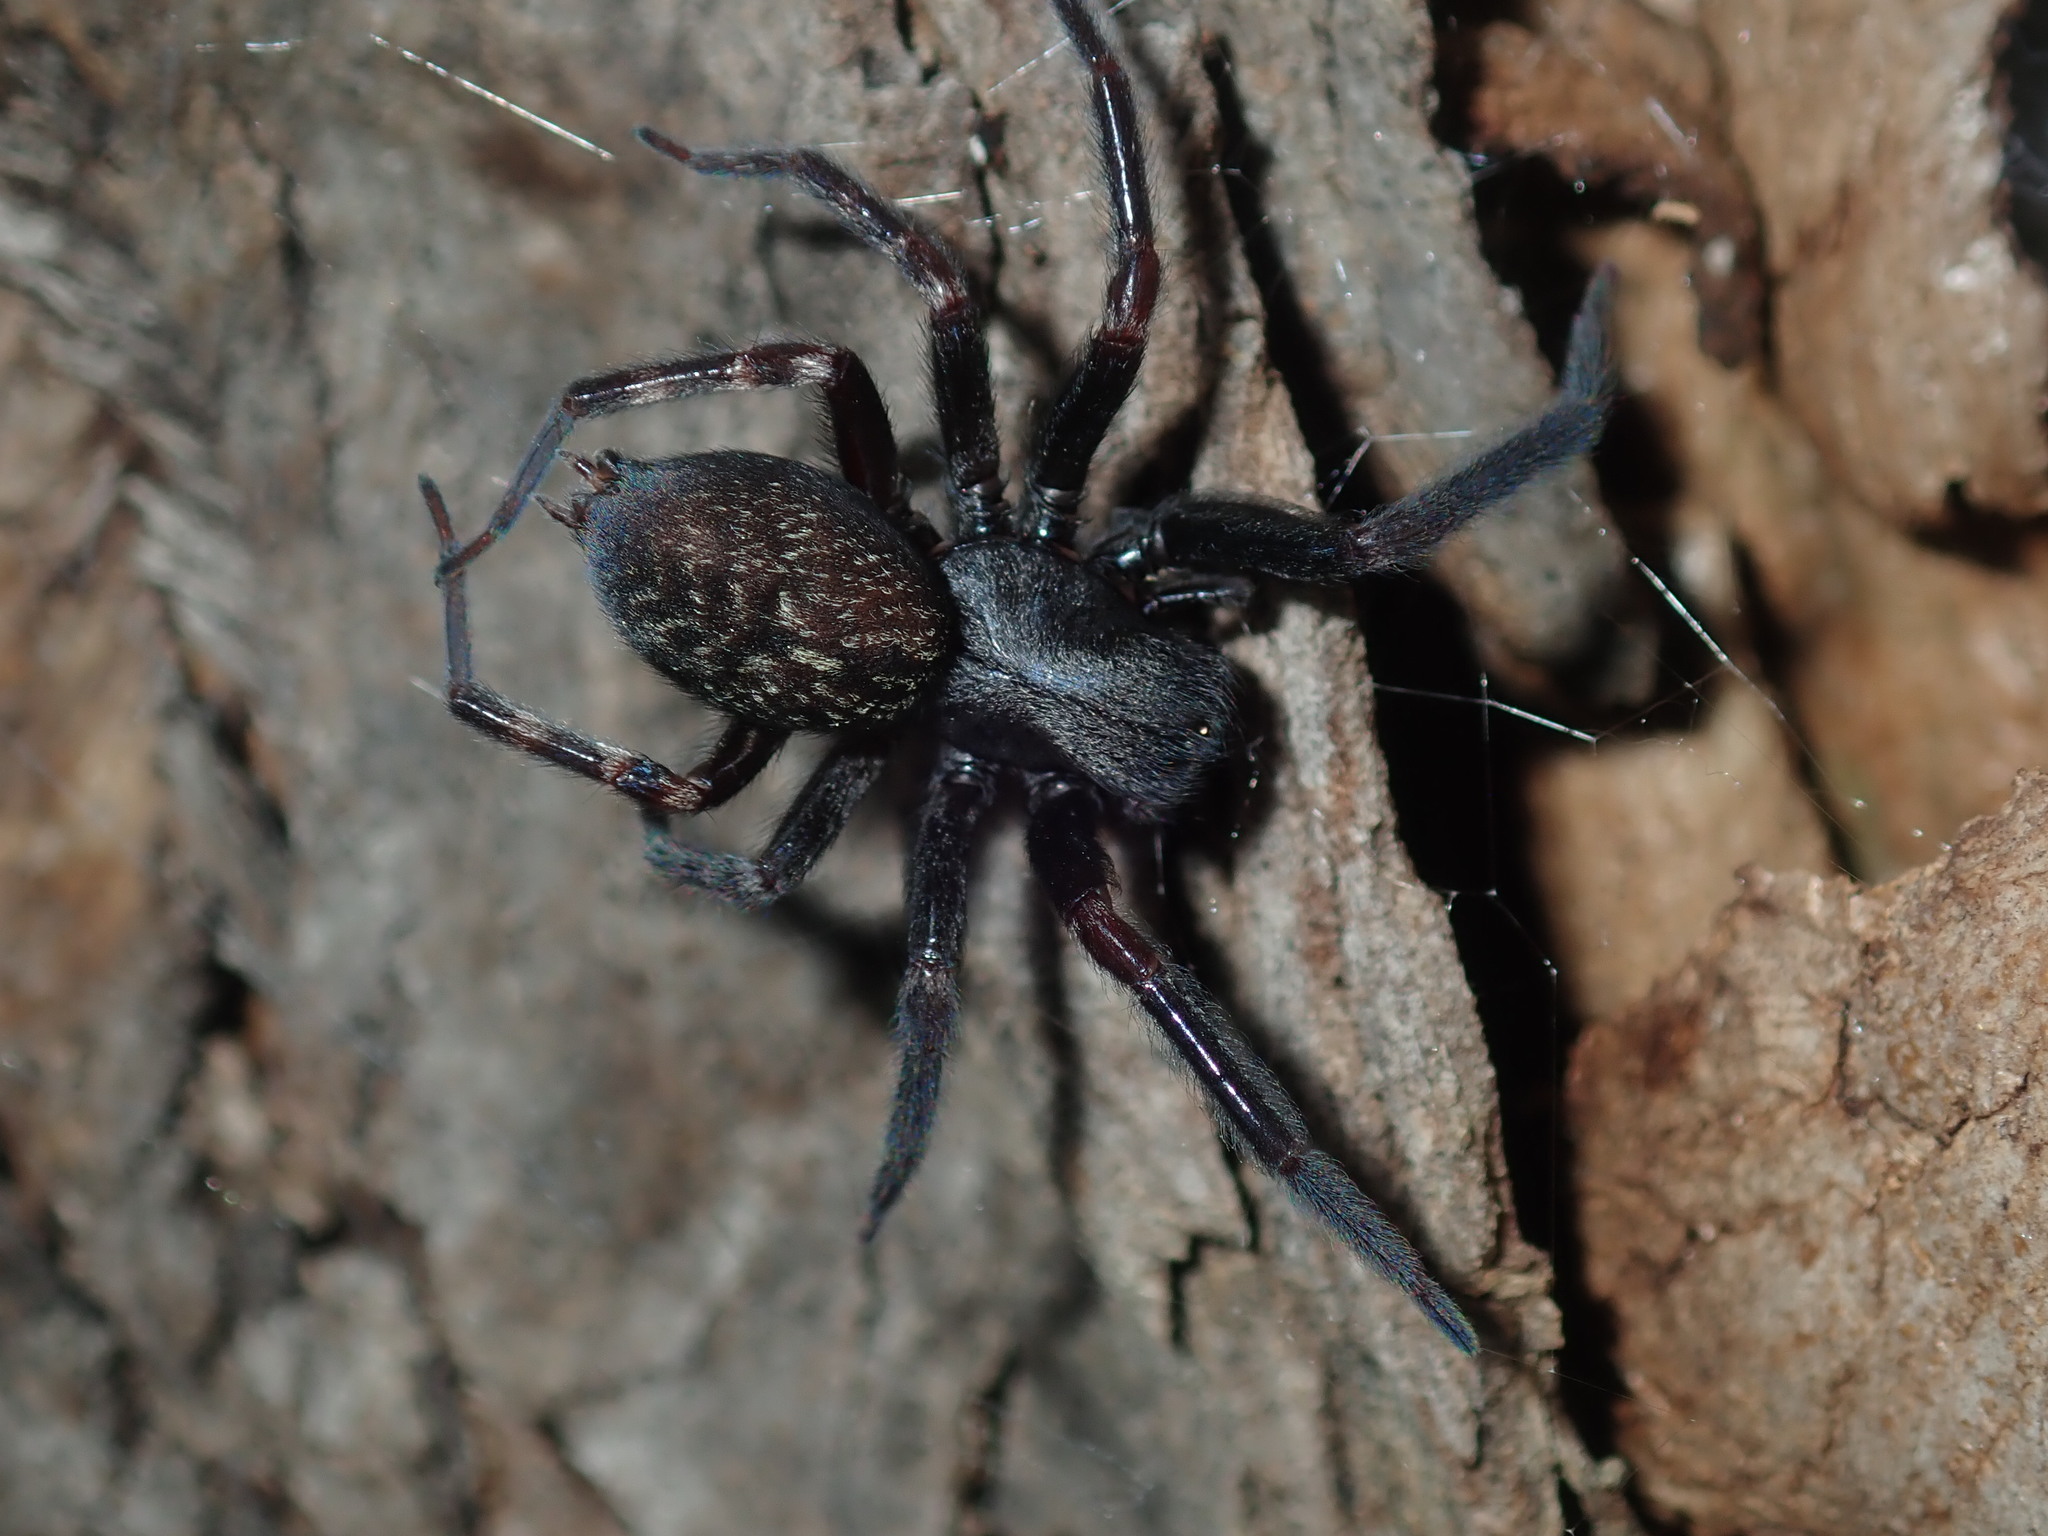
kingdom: Animalia
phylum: Arthropoda
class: Arachnida
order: Araneae
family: Desidae
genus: Badumna
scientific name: Badumna insignis
